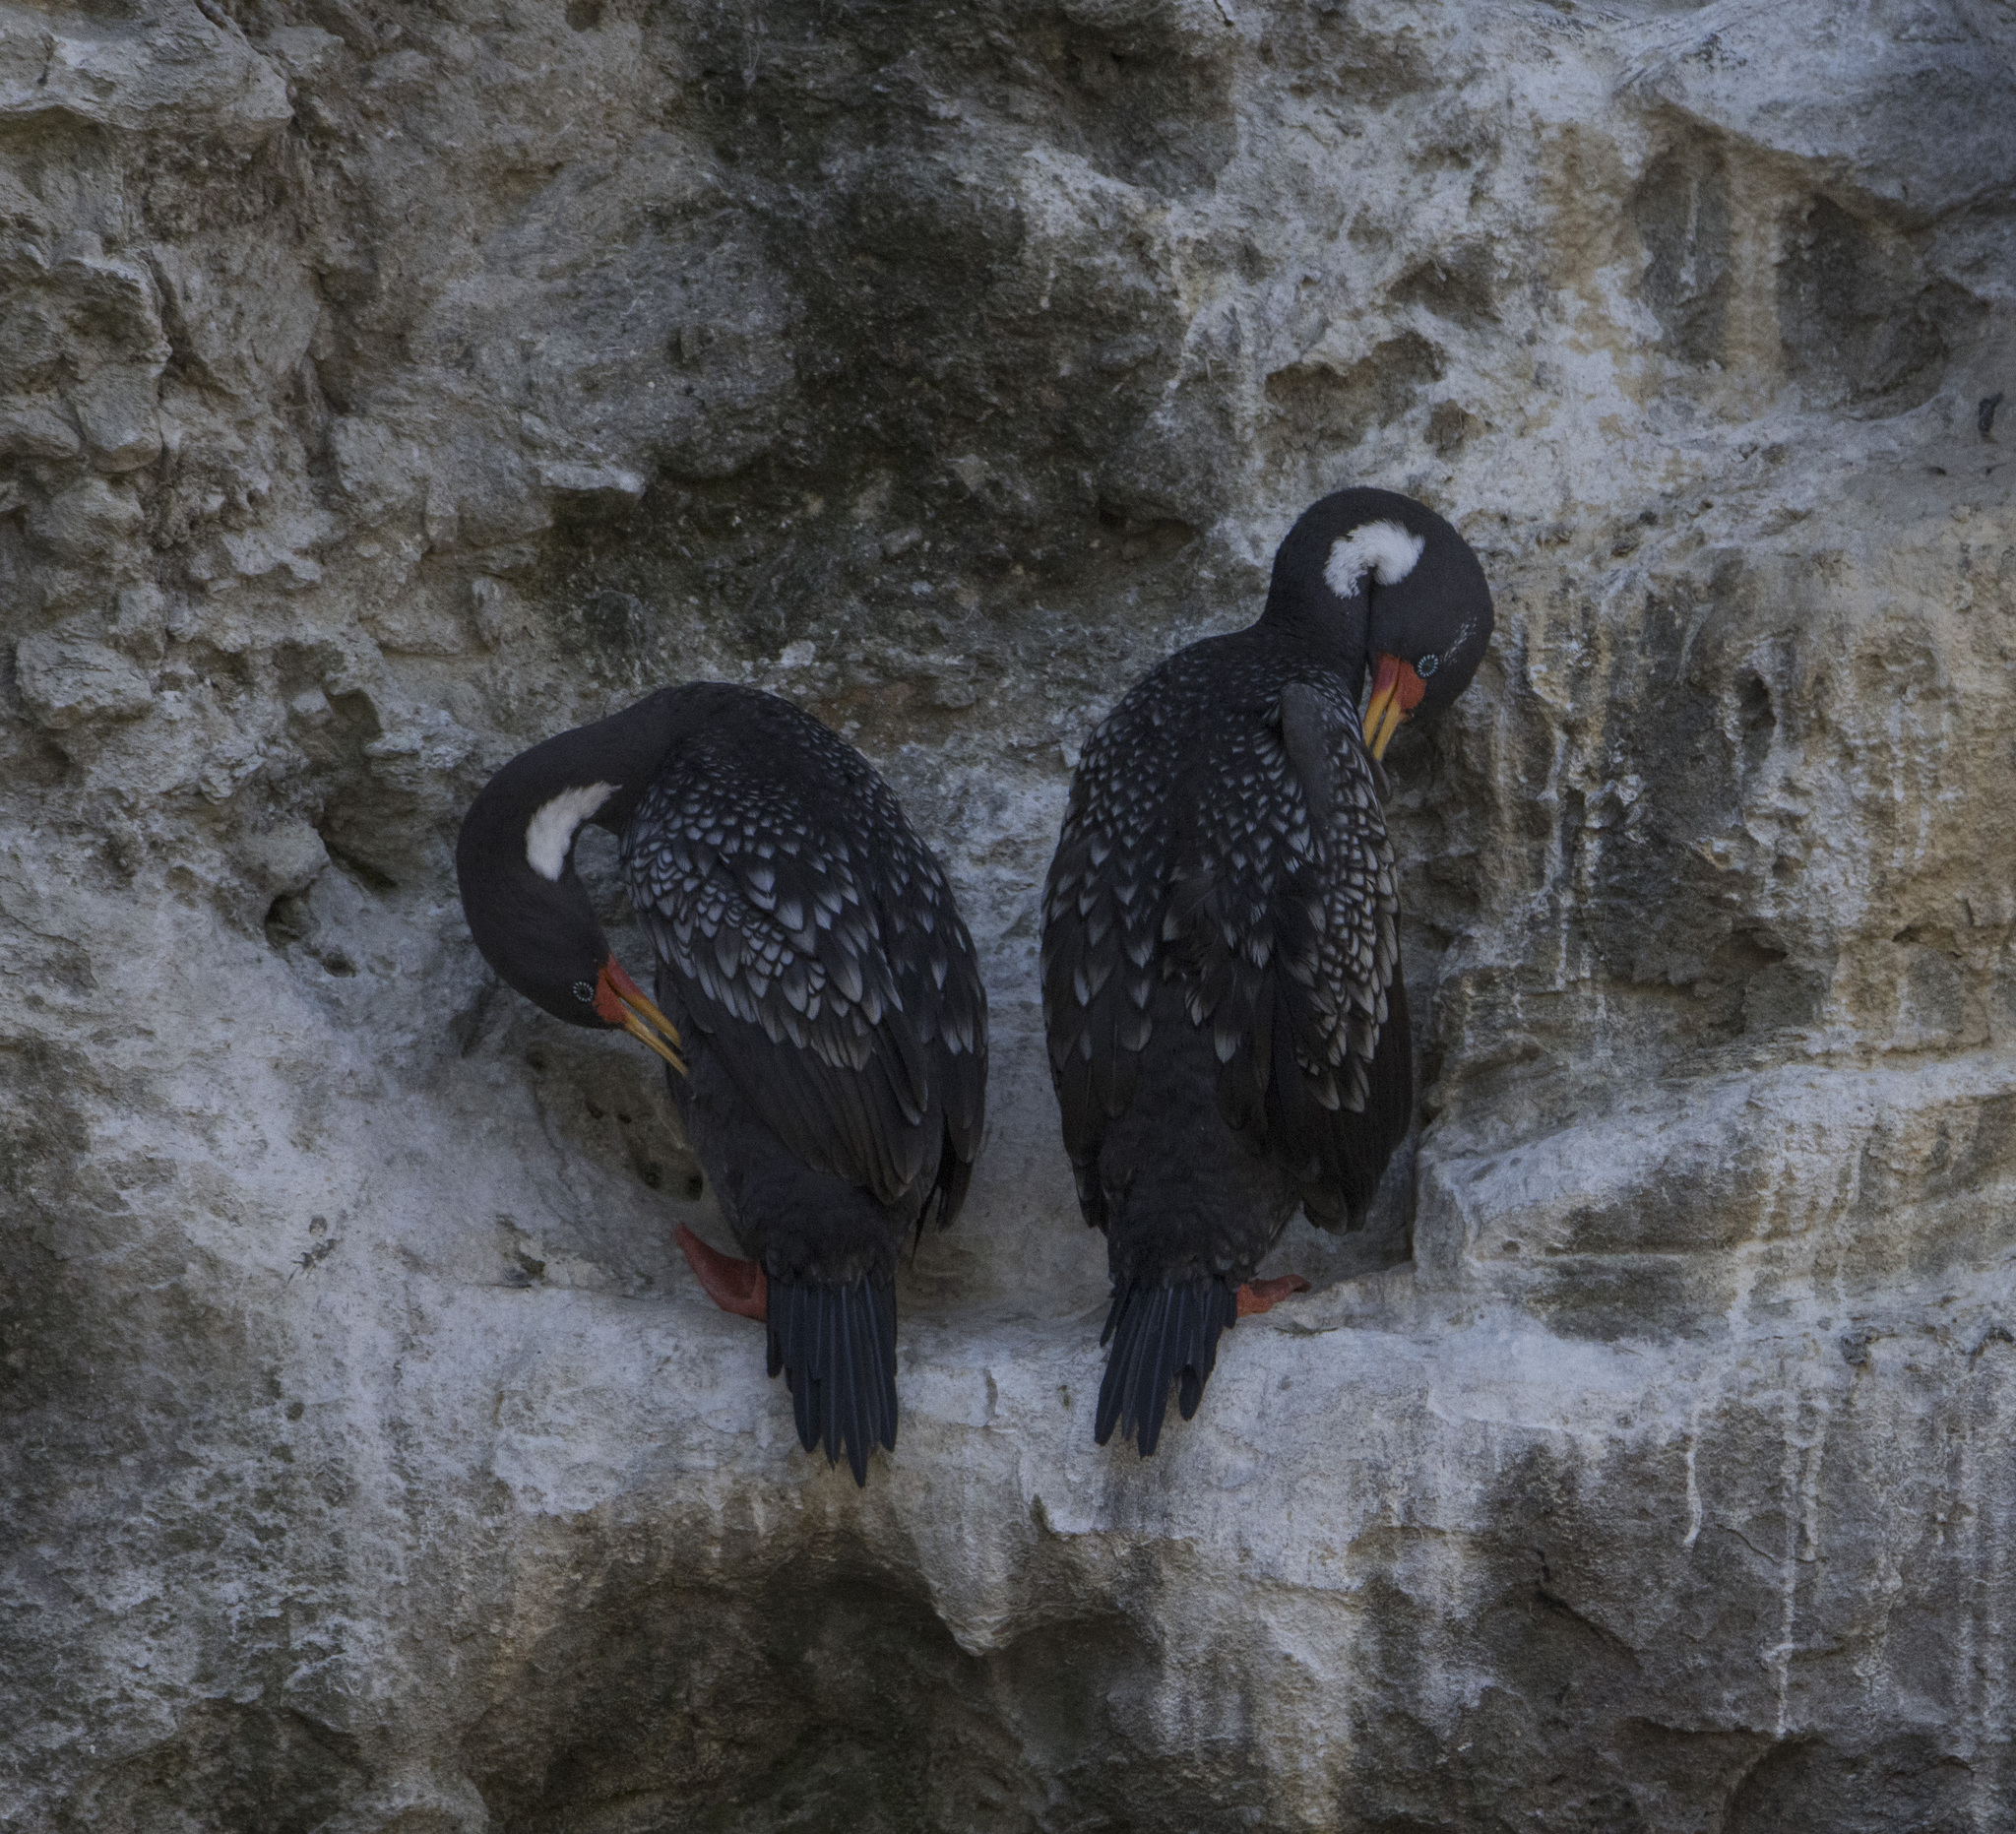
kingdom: Animalia
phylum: Chordata
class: Aves
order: Suliformes
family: Phalacrocoracidae
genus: Phalacrocorax
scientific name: Phalacrocorax gaimardi
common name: Red-legged cormorant
